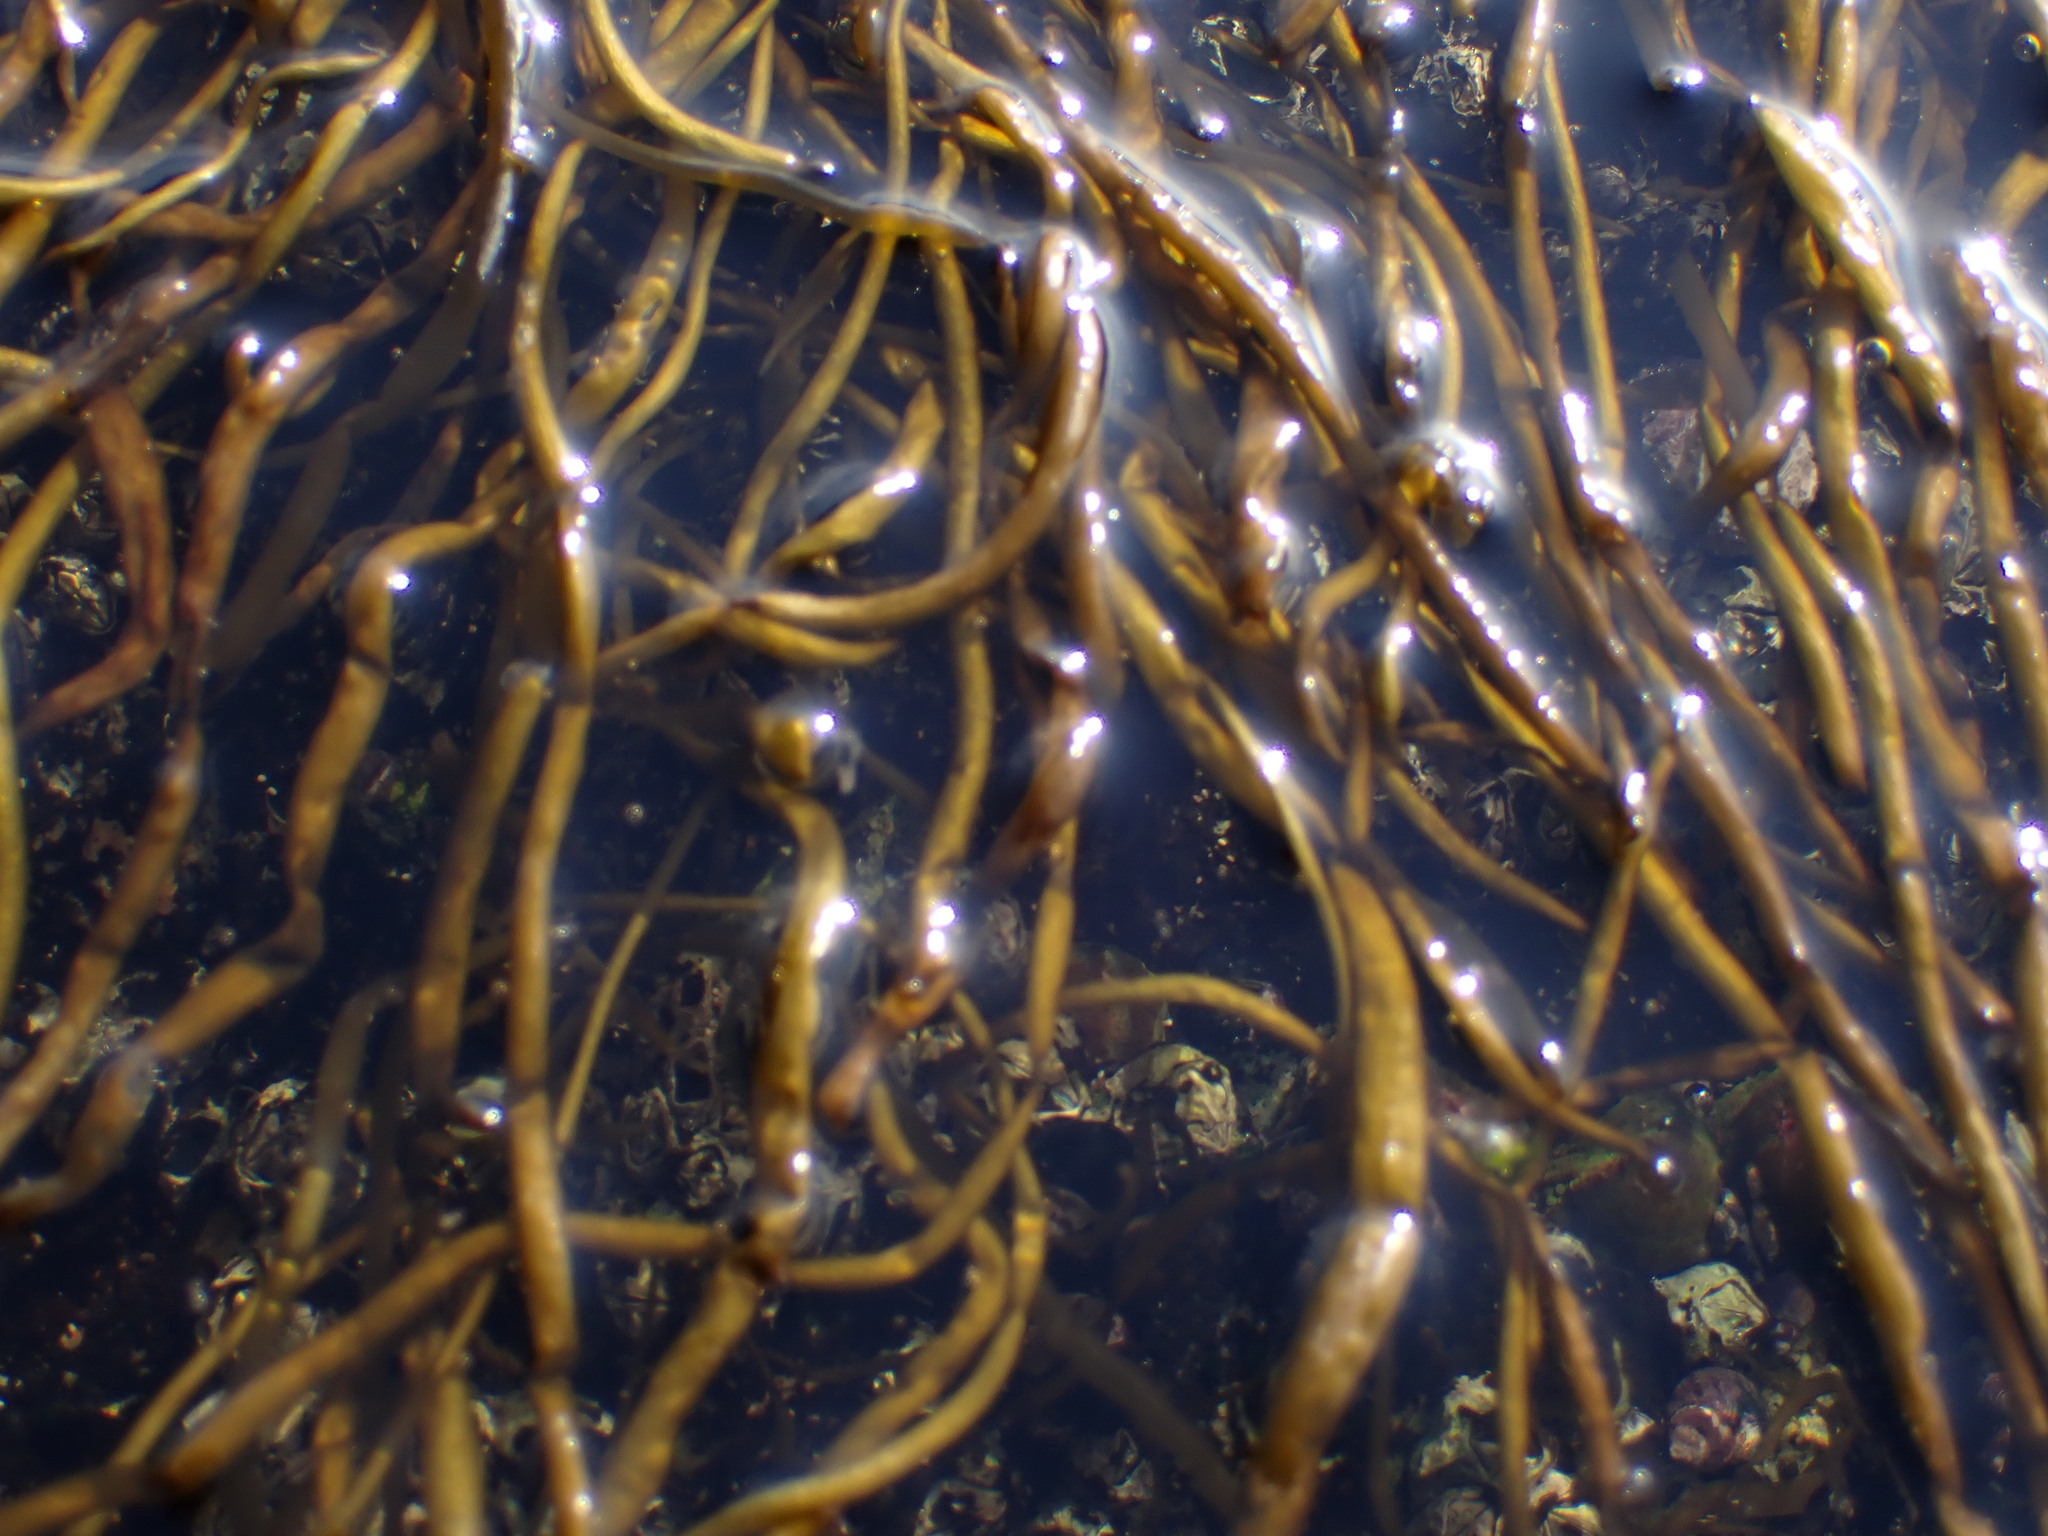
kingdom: Chromista
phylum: Ochrophyta
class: Phaeophyceae
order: Scytosiphonales
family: Scytosiphonaceae
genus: Scytosiphon
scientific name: Scytosiphon lomentaria
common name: Beanweed
